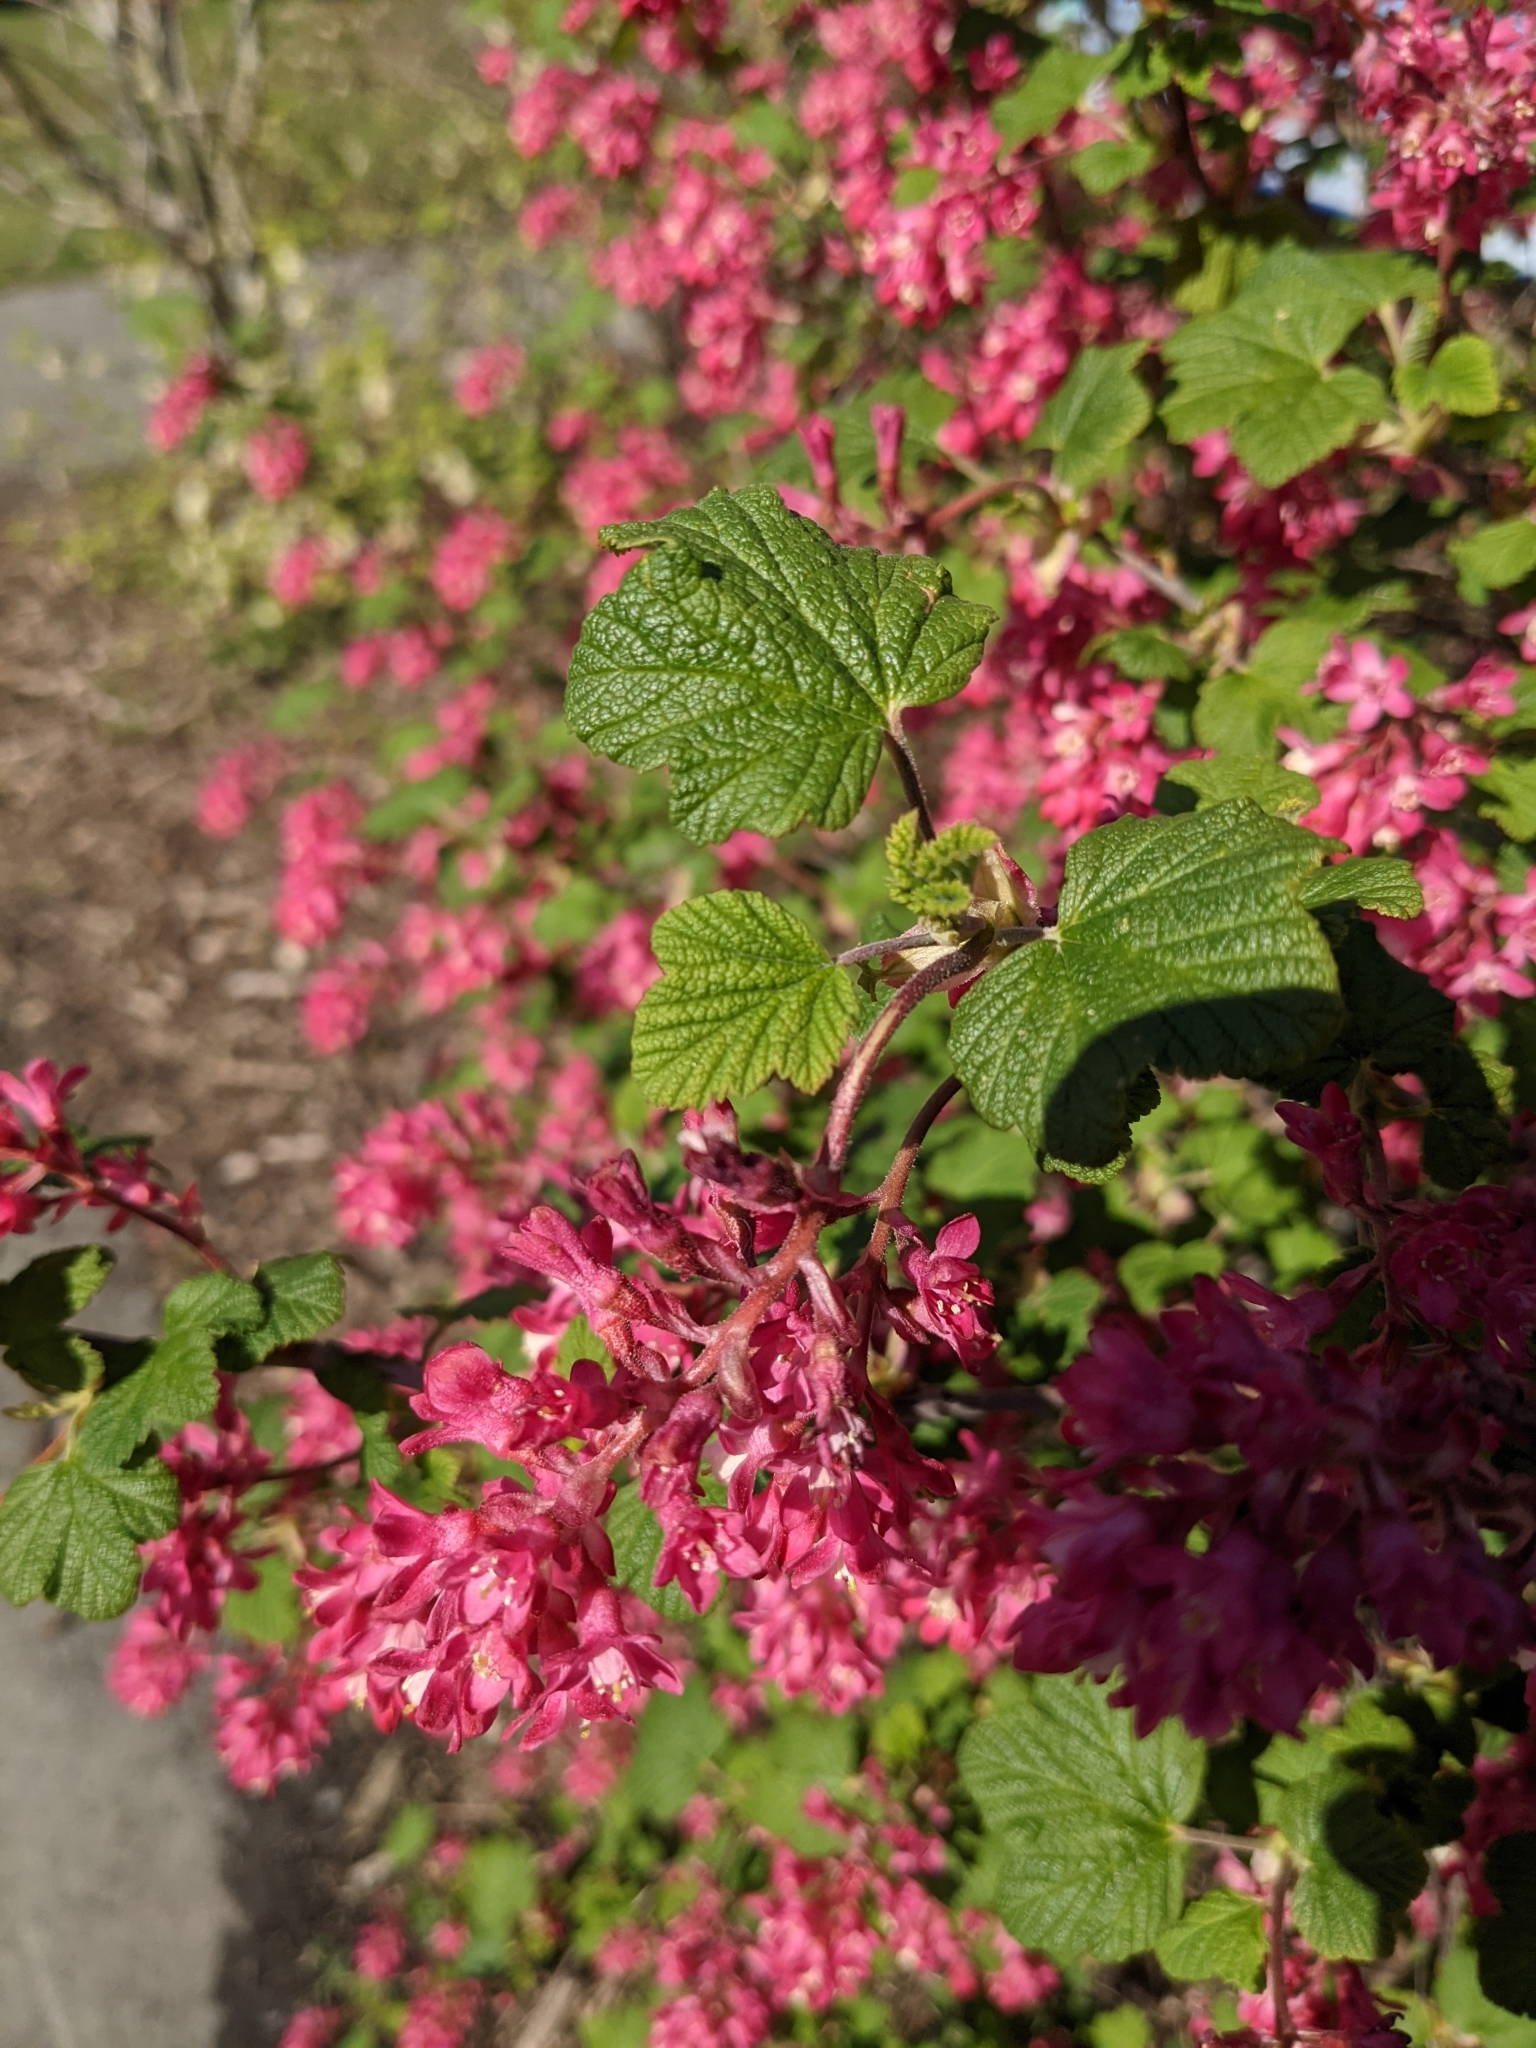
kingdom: Plantae
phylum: Tracheophyta
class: Magnoliopsida
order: Saxifragales
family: Grossulariaceae
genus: Ribes
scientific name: Ribes sanguineum
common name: Flowering currant
